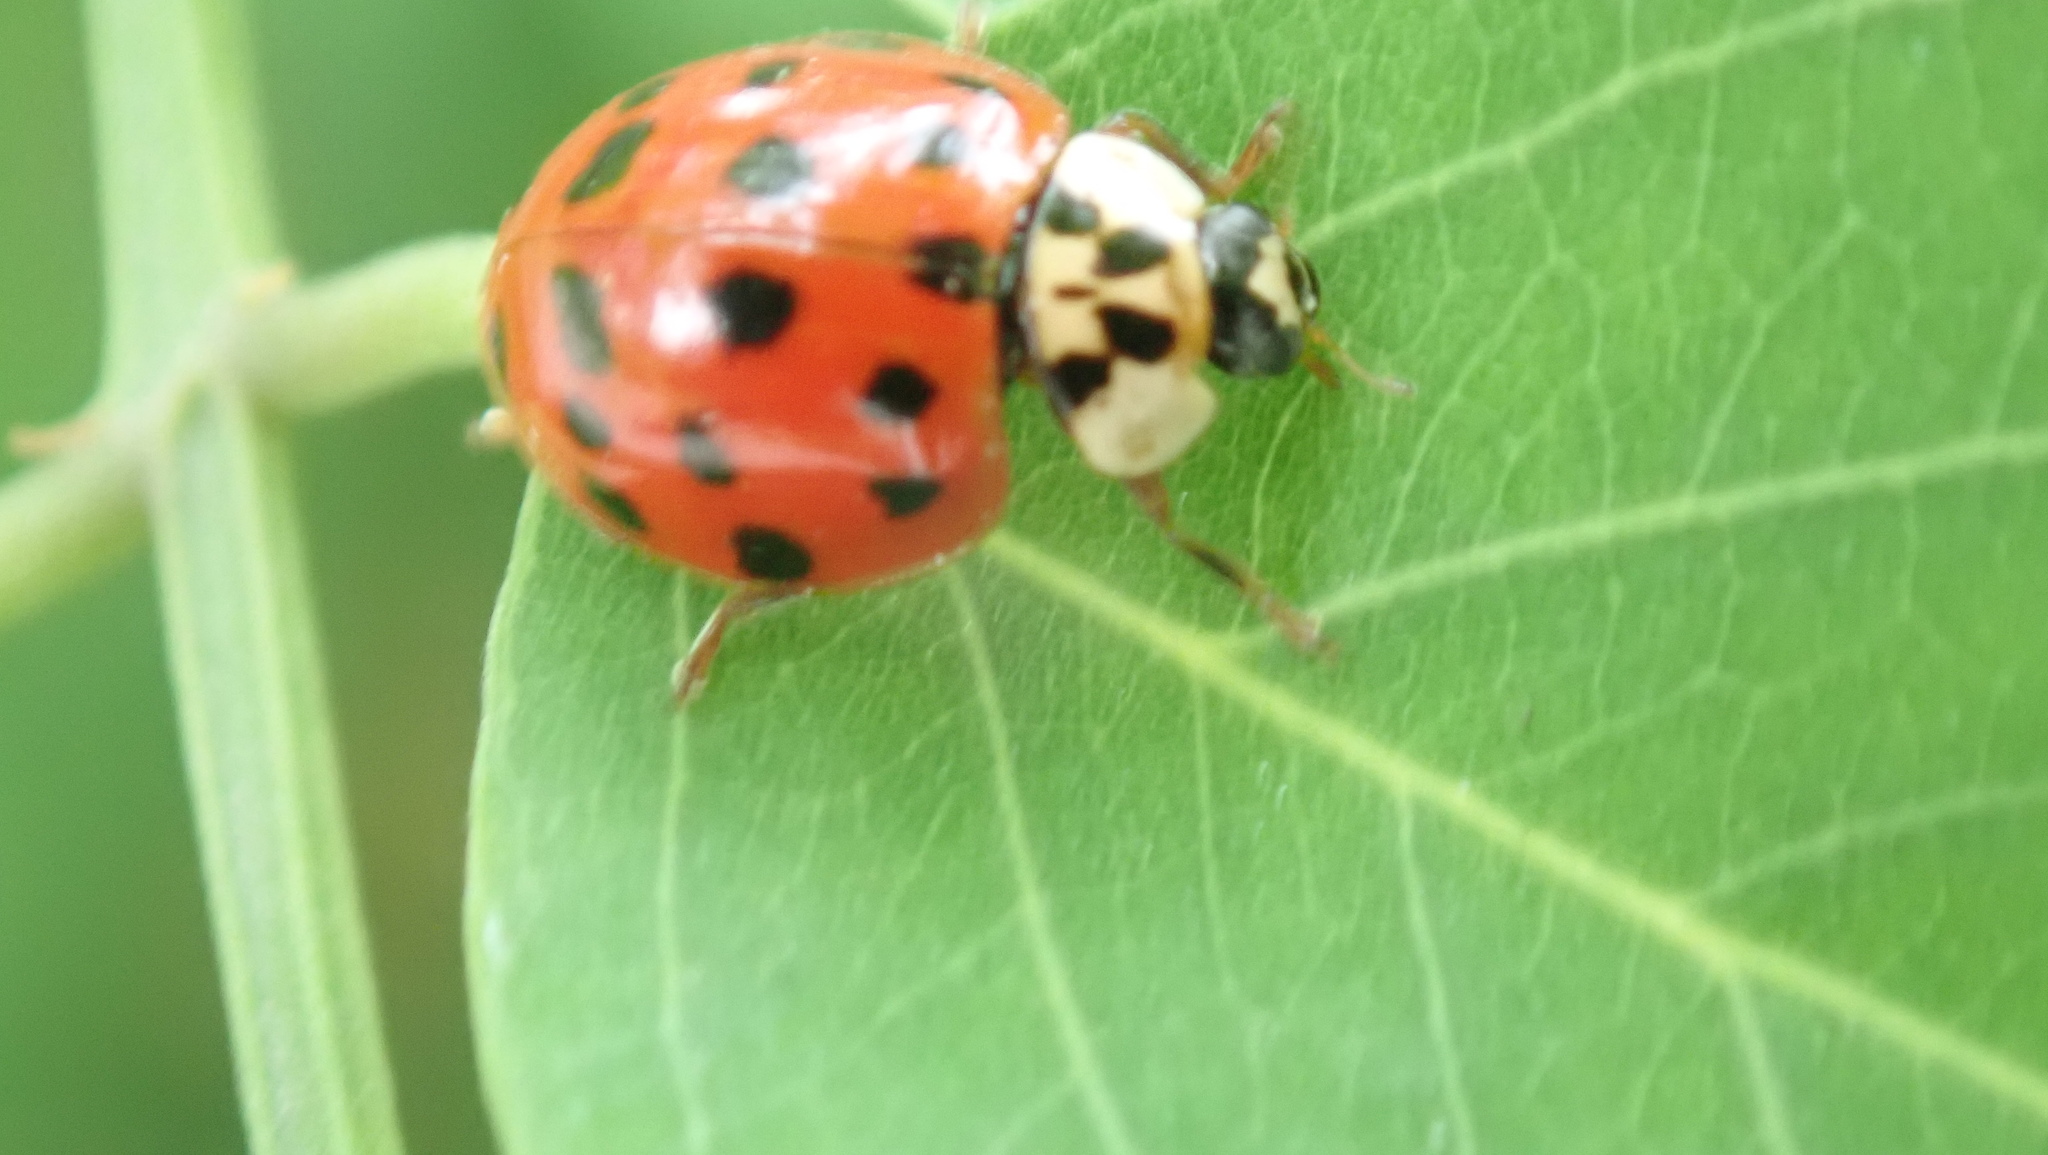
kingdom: Animalia
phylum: Arthropoda
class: Insecta
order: Coleoptera
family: Coccinellidae
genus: Harmonia
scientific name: Harmonia axyridis
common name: Harlequin ladybird
